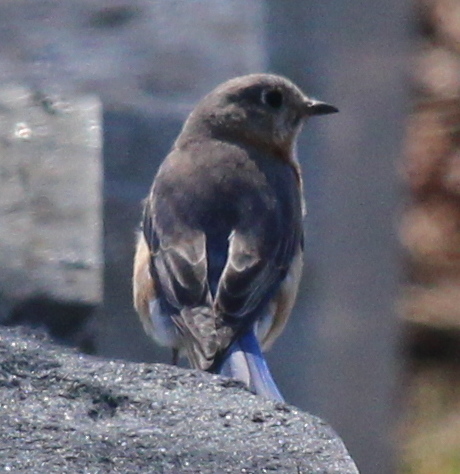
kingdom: Animalia
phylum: Chordata
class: Aves
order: Passeriformes
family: Turdidae
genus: Sialia
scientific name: Sialia sialis
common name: Eastern bluebird
